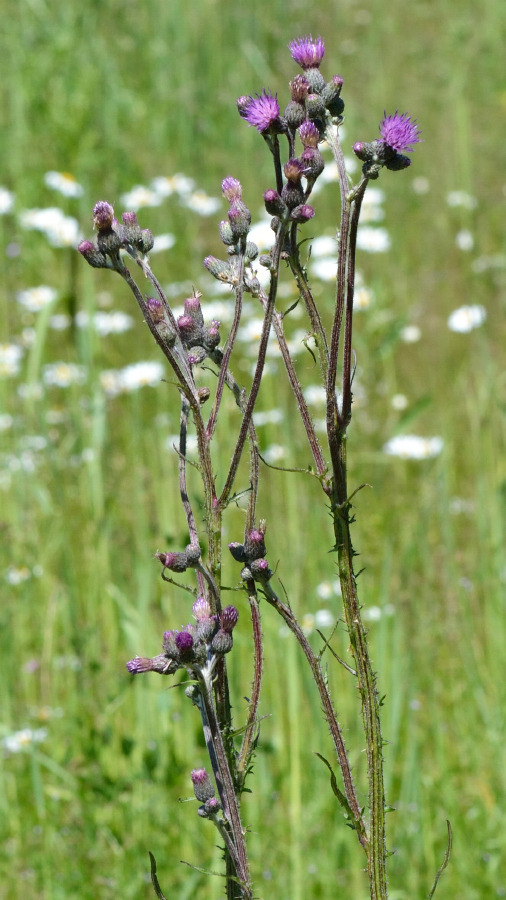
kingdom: Plantae
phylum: Tracheophyta
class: Magnoliopsida
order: Asterales
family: Asteraceae
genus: Cirsium
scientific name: Cirsium palustre
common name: Marsh thistle
